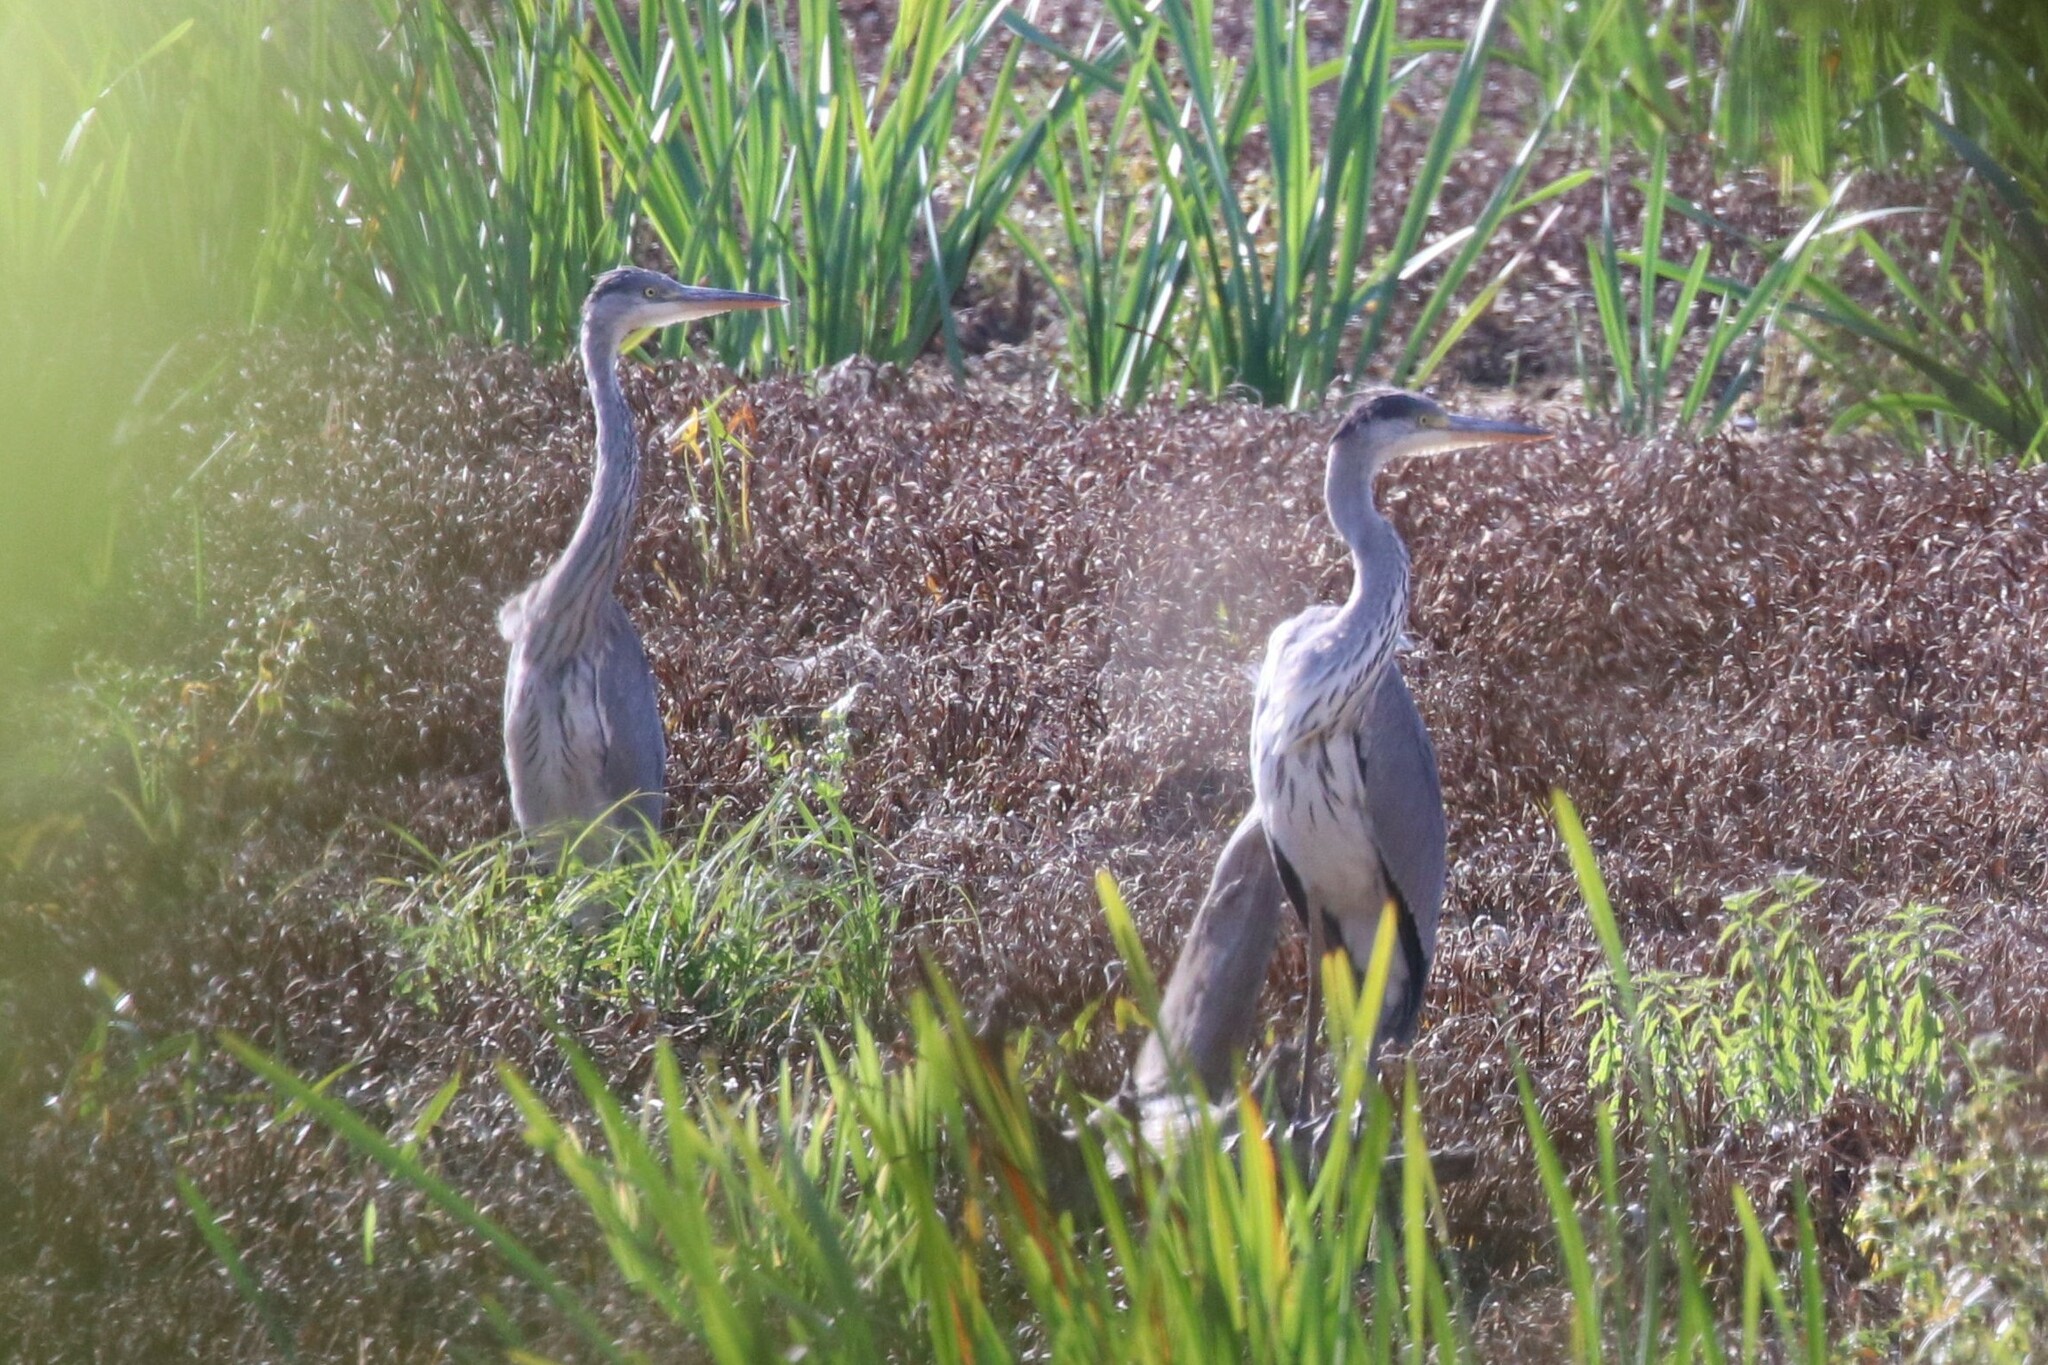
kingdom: Animalia
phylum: Chordata
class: Aves
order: Pelecaniformes
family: Ardeidae
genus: Ardea
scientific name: Ardea cinerea
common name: Grey heron
